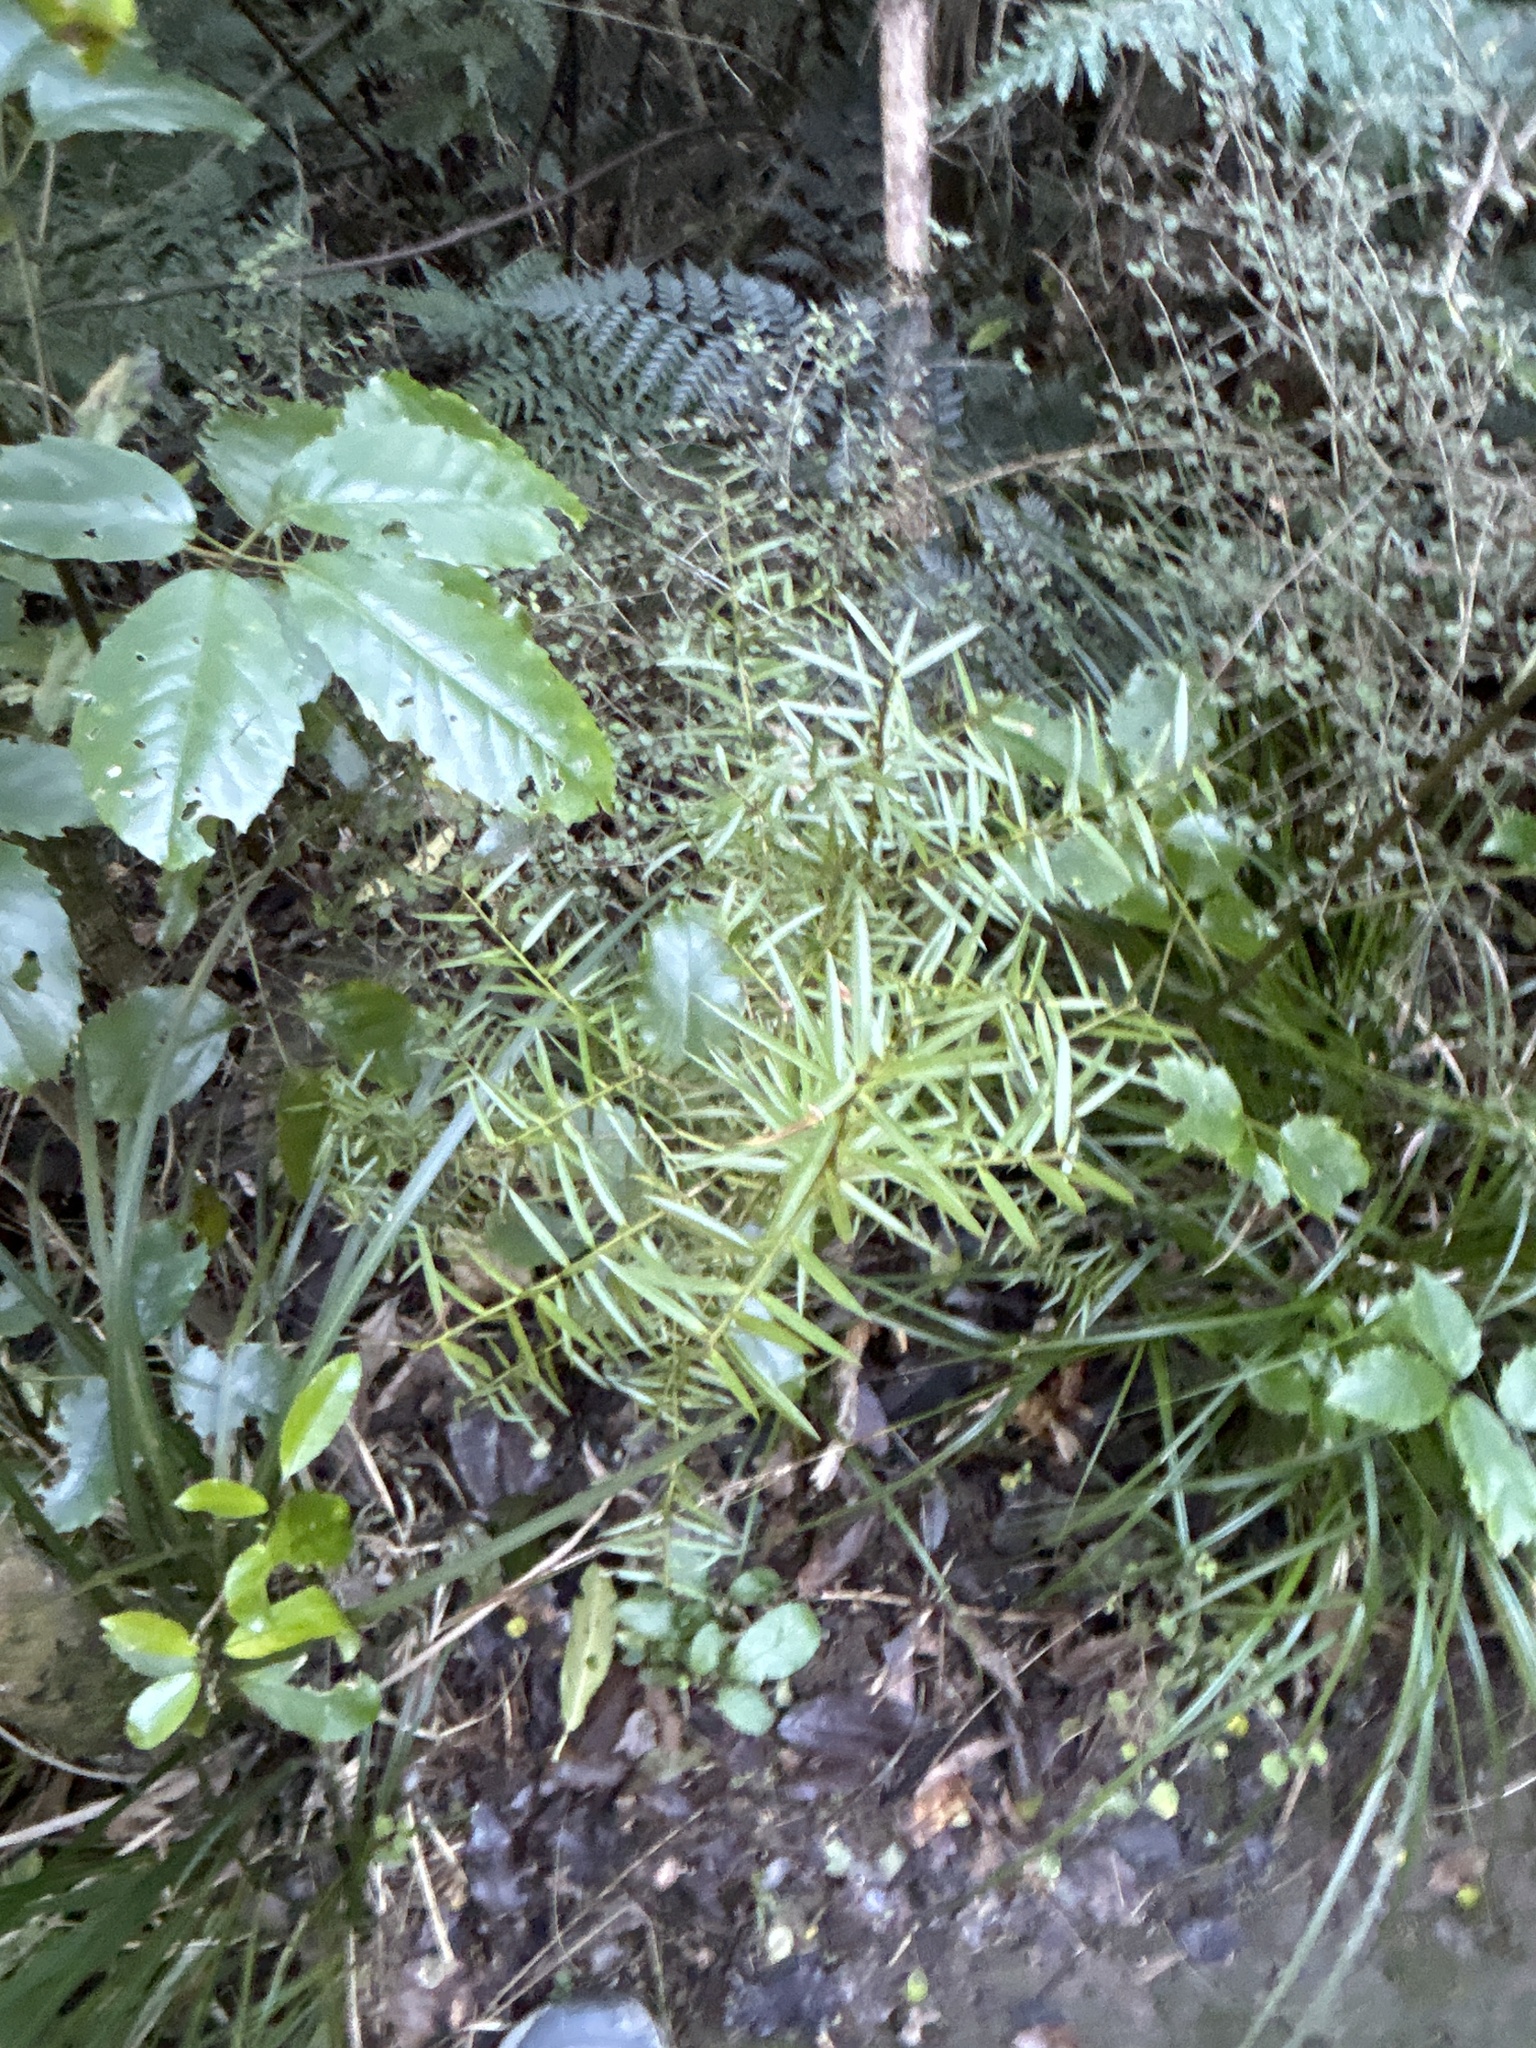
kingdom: Plantae
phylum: Tracheophyta
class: Pinopsida
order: Pinales
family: Podocarpaceae
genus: Podocarpus
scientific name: Podocarpus totara
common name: Totara
